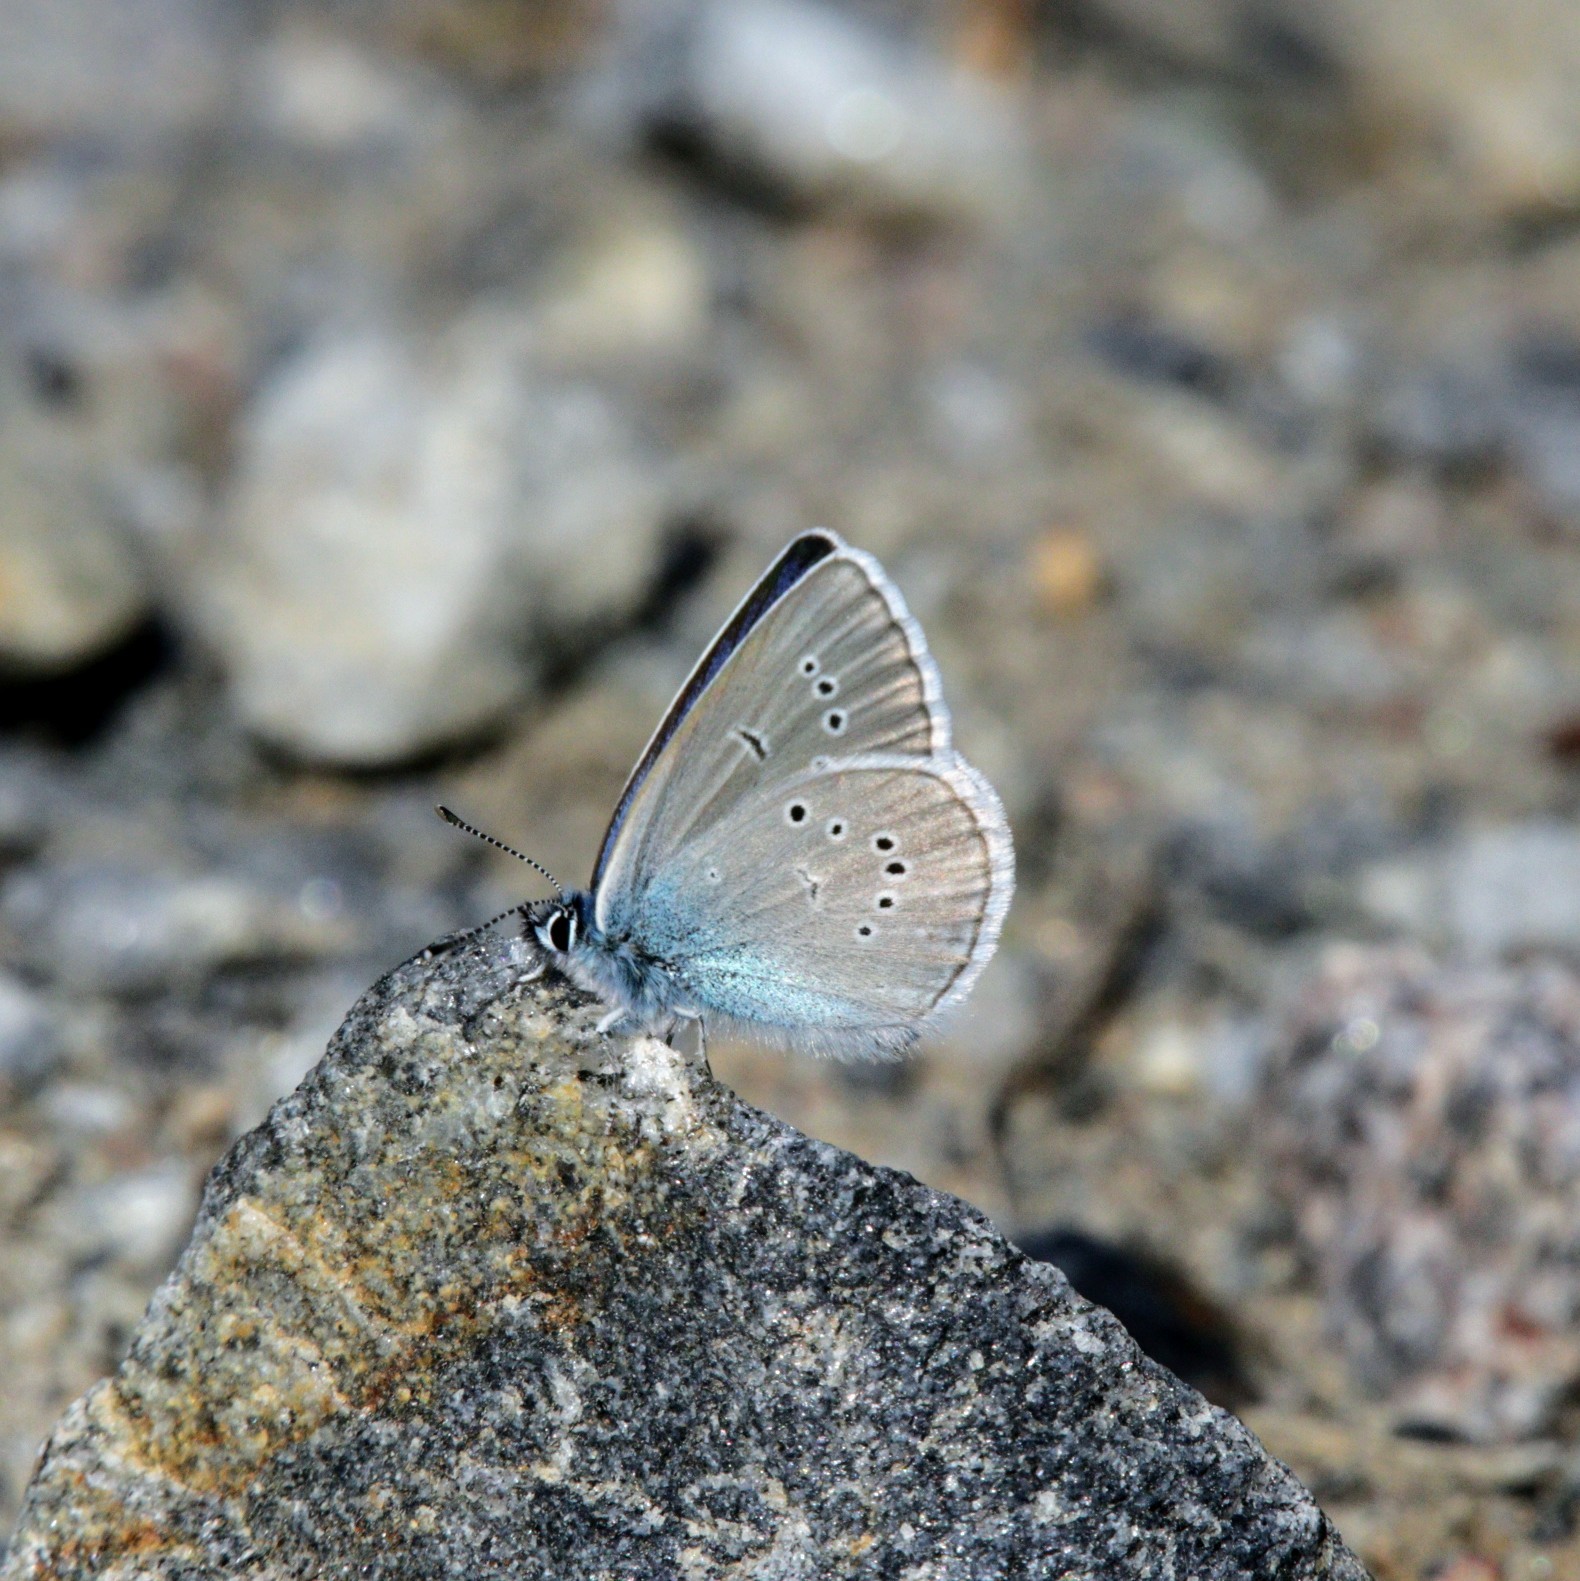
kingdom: Animalia
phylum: Arthropoda
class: Insecta
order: Lepidoptera
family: Lycaenidae
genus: Cyaniris
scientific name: Cyaniris semiargus
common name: Mazarine blue
